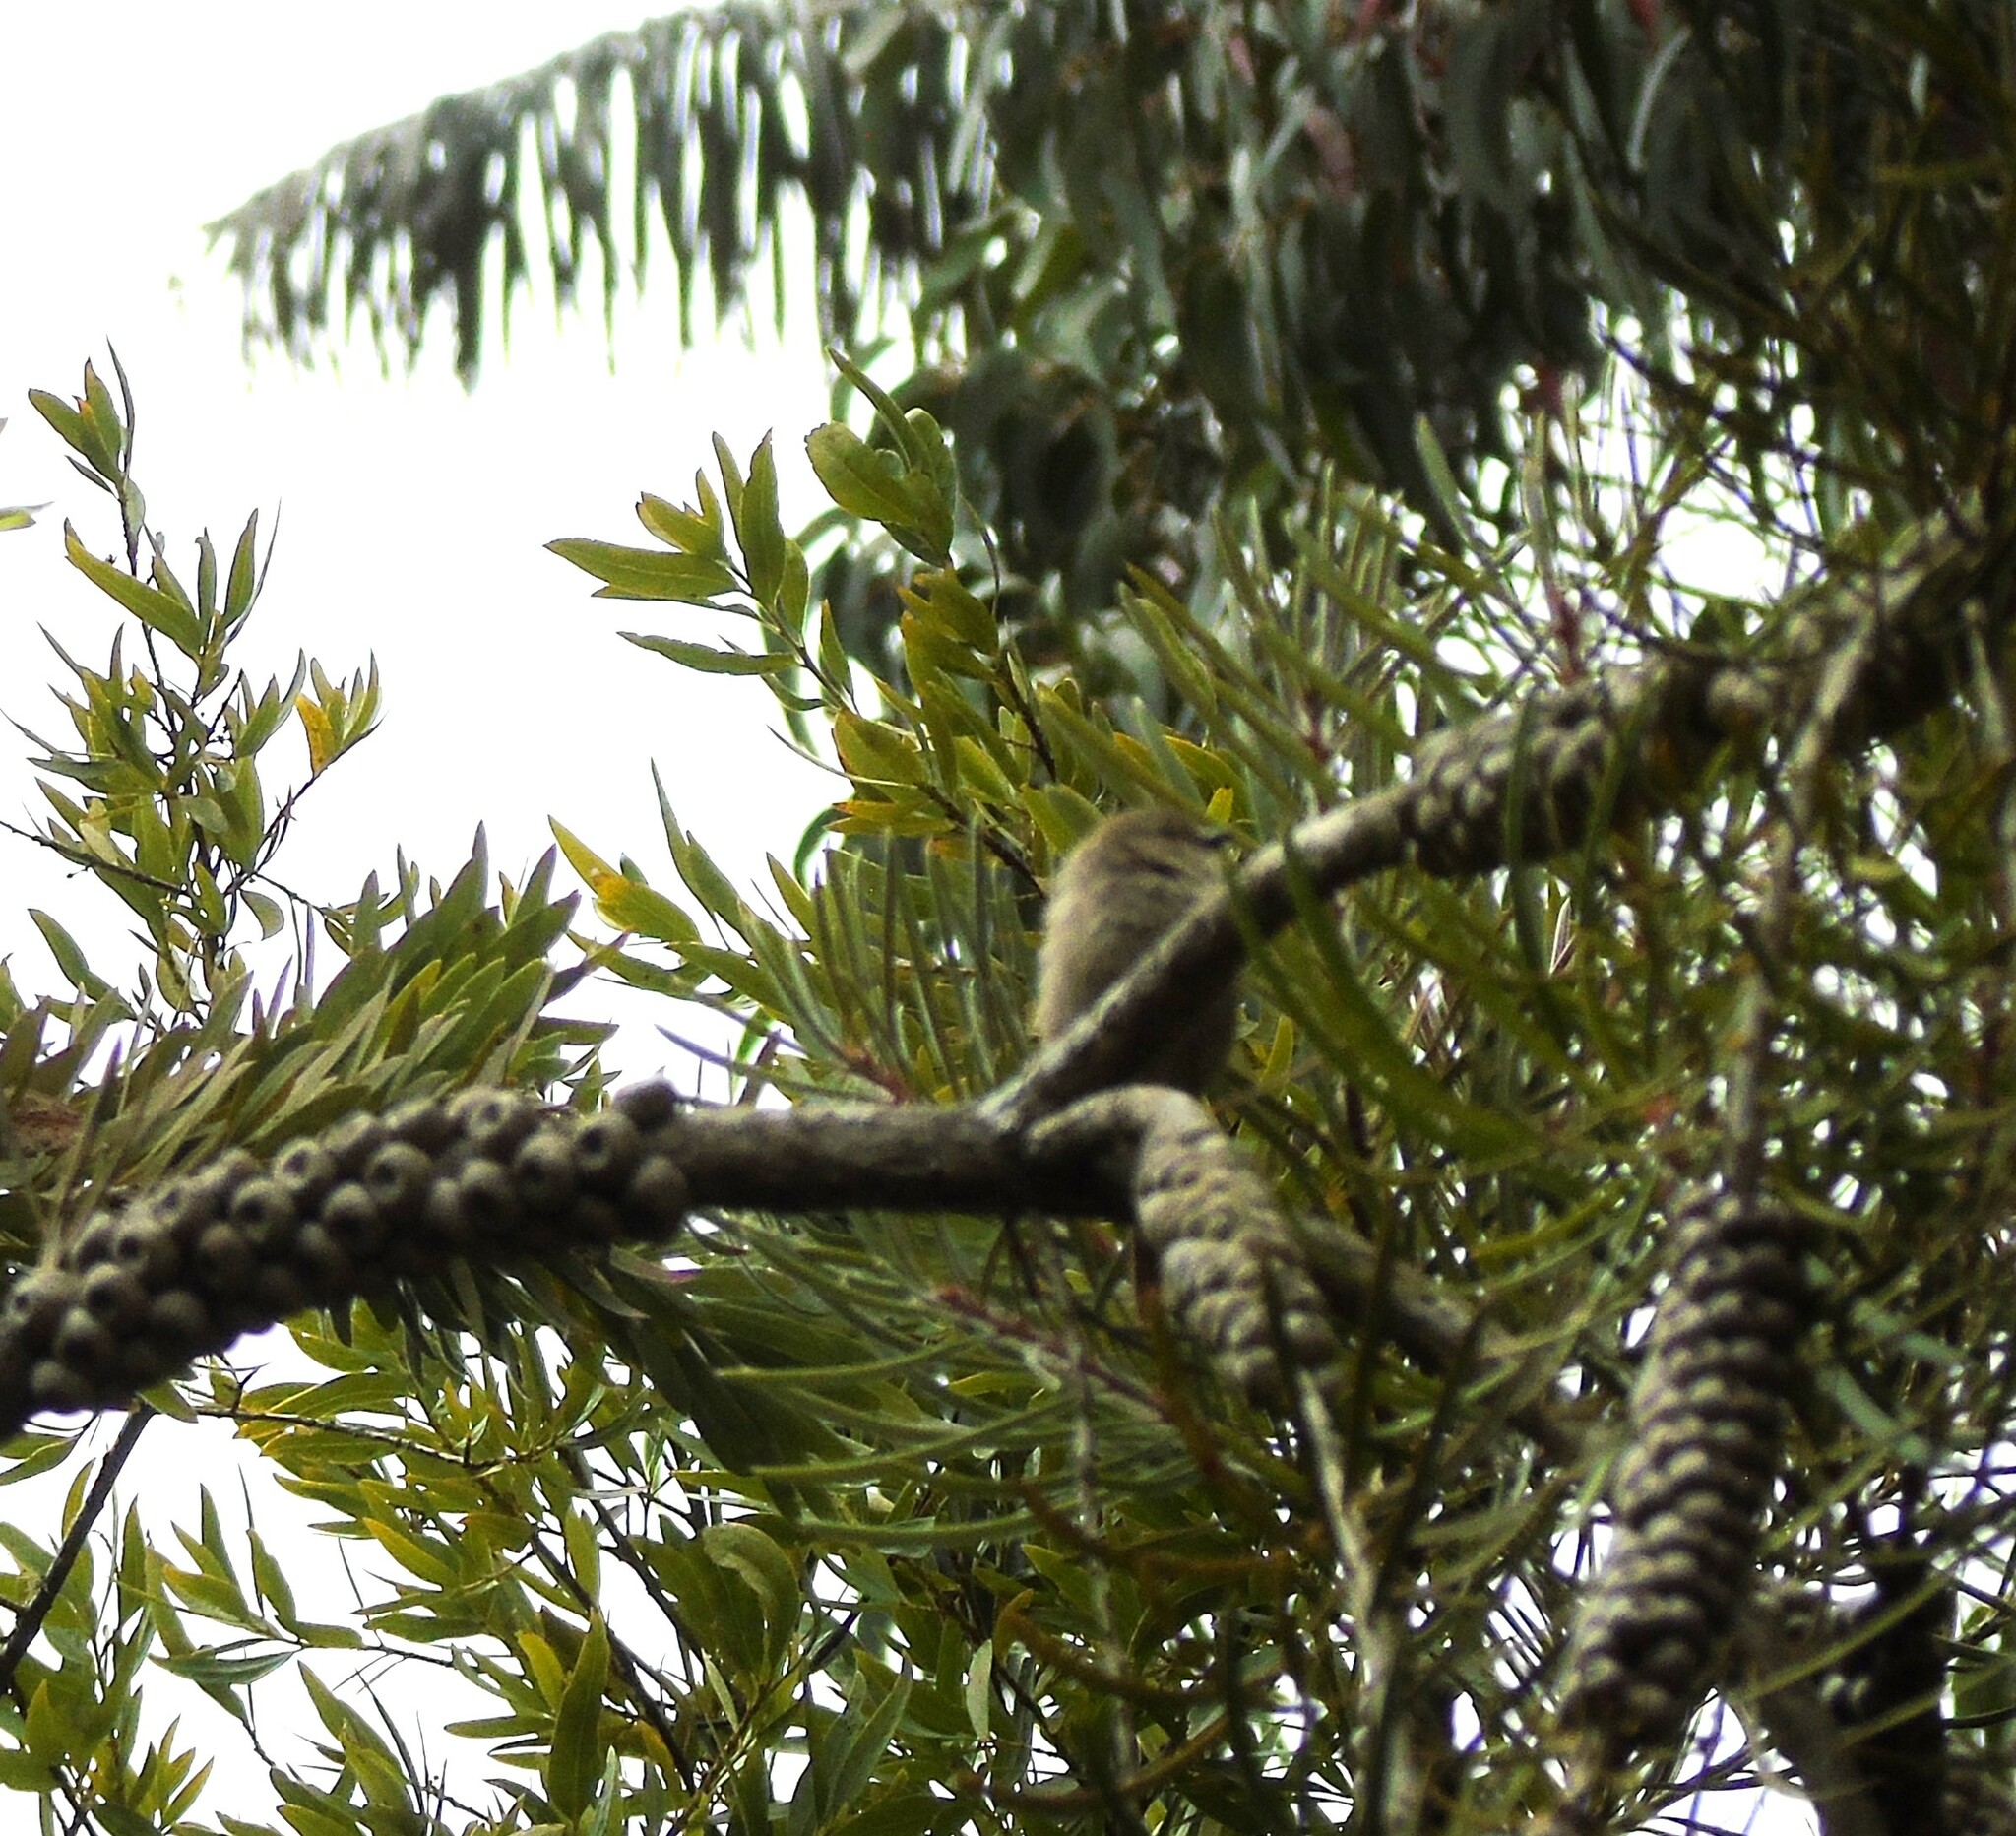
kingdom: Animalia
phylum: Chordata
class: Aves
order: Passeriformes
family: Aegithalidae
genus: Psaltriparus
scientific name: Psaltriparus minimus
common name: American bushtit
